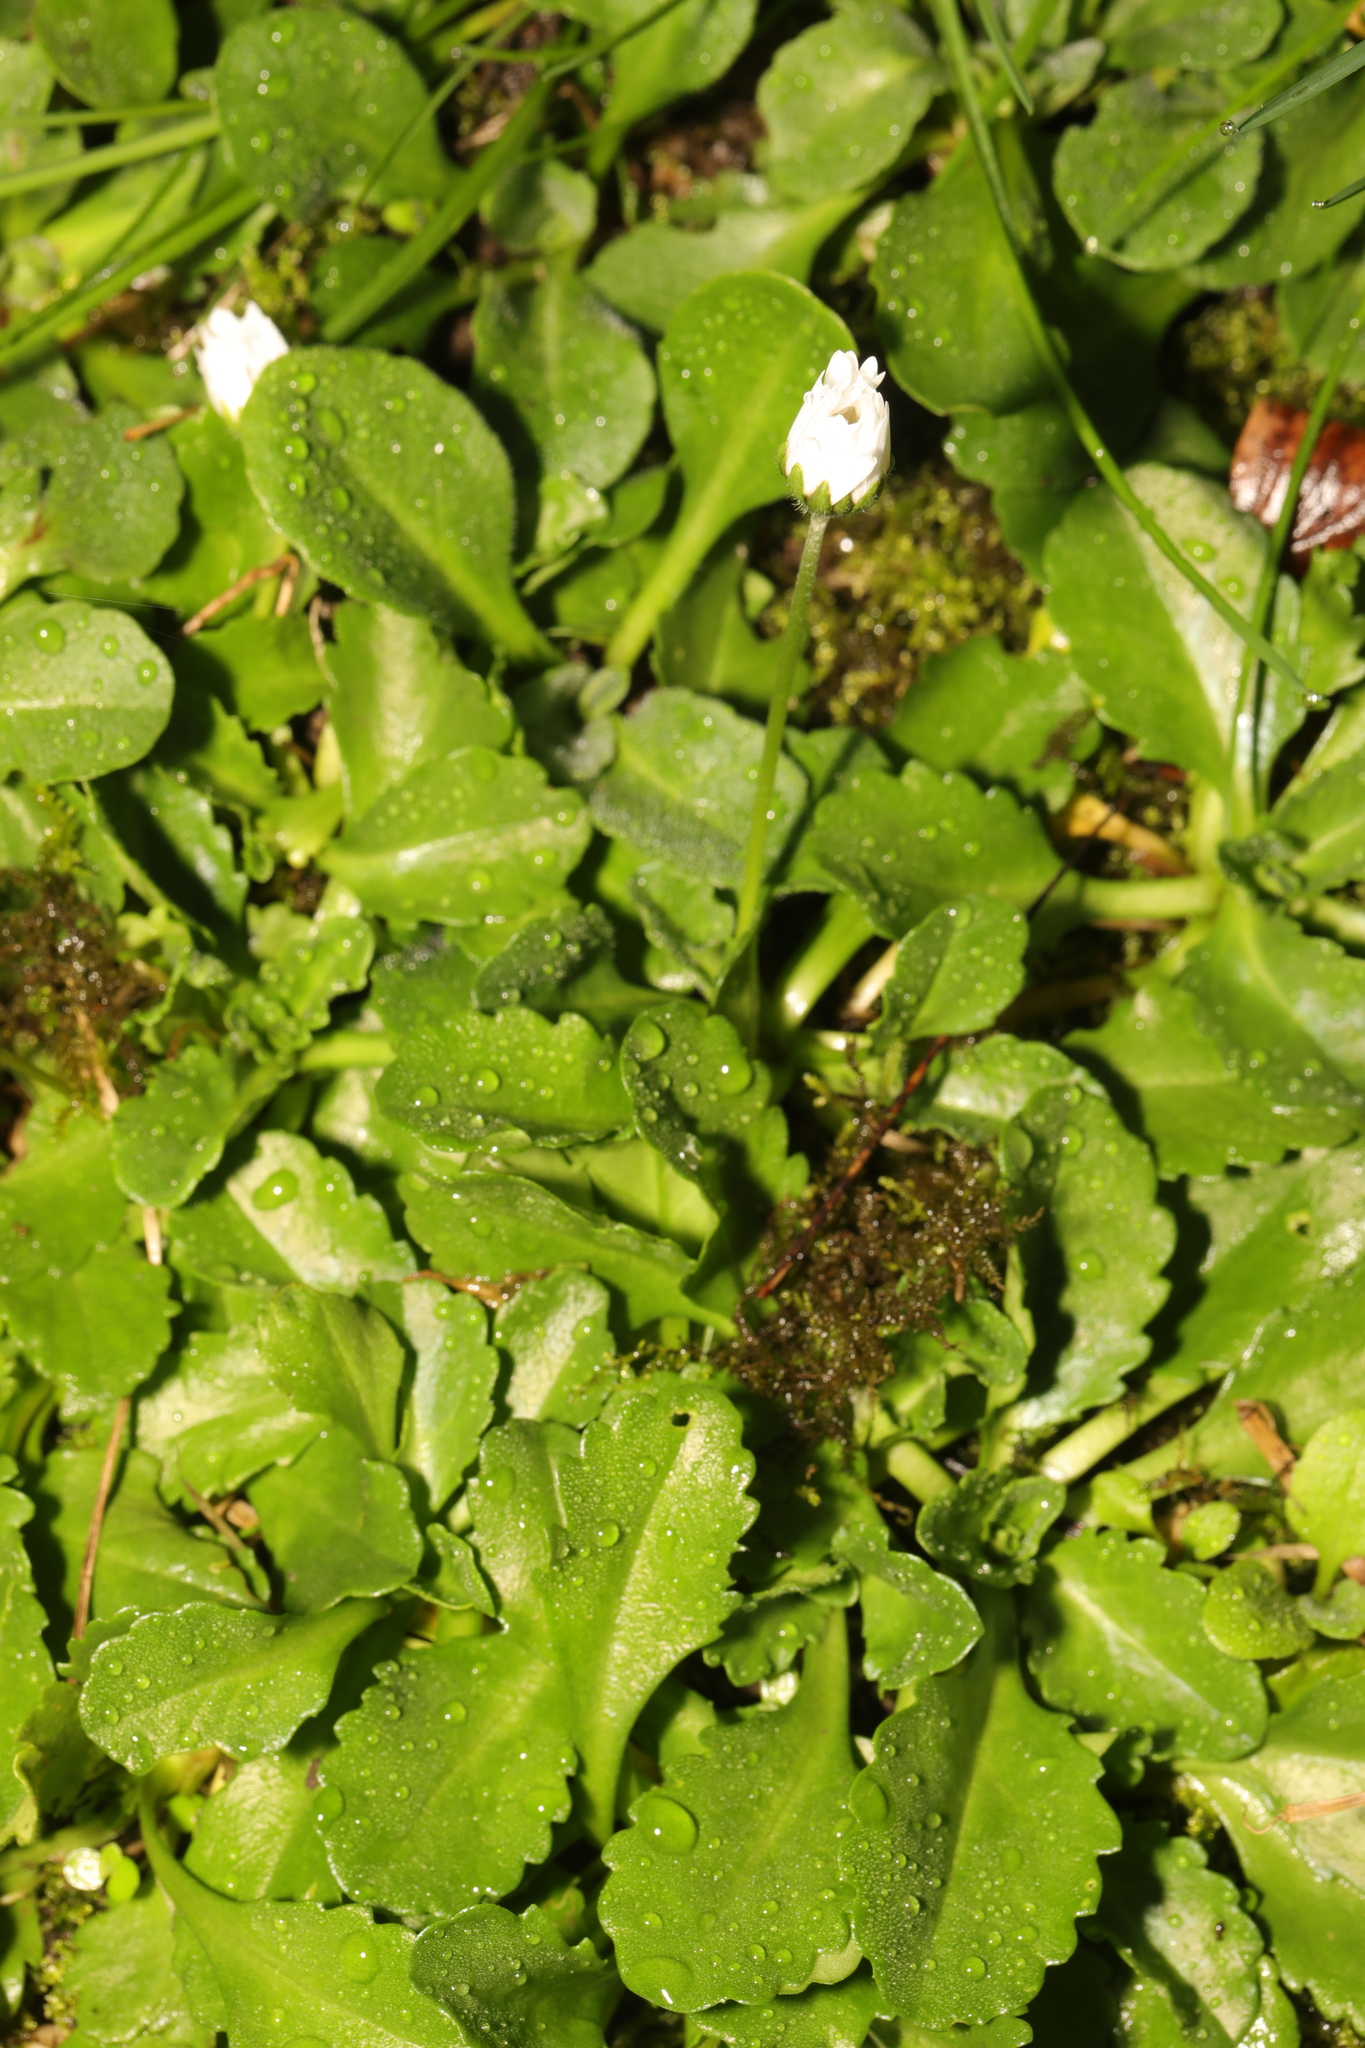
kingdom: Plantae
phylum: Tracheophyta
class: Magnoliopsida
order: Asterales
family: Asteraceae
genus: Bellis
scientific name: Bellis perennis
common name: Lawndaisy
